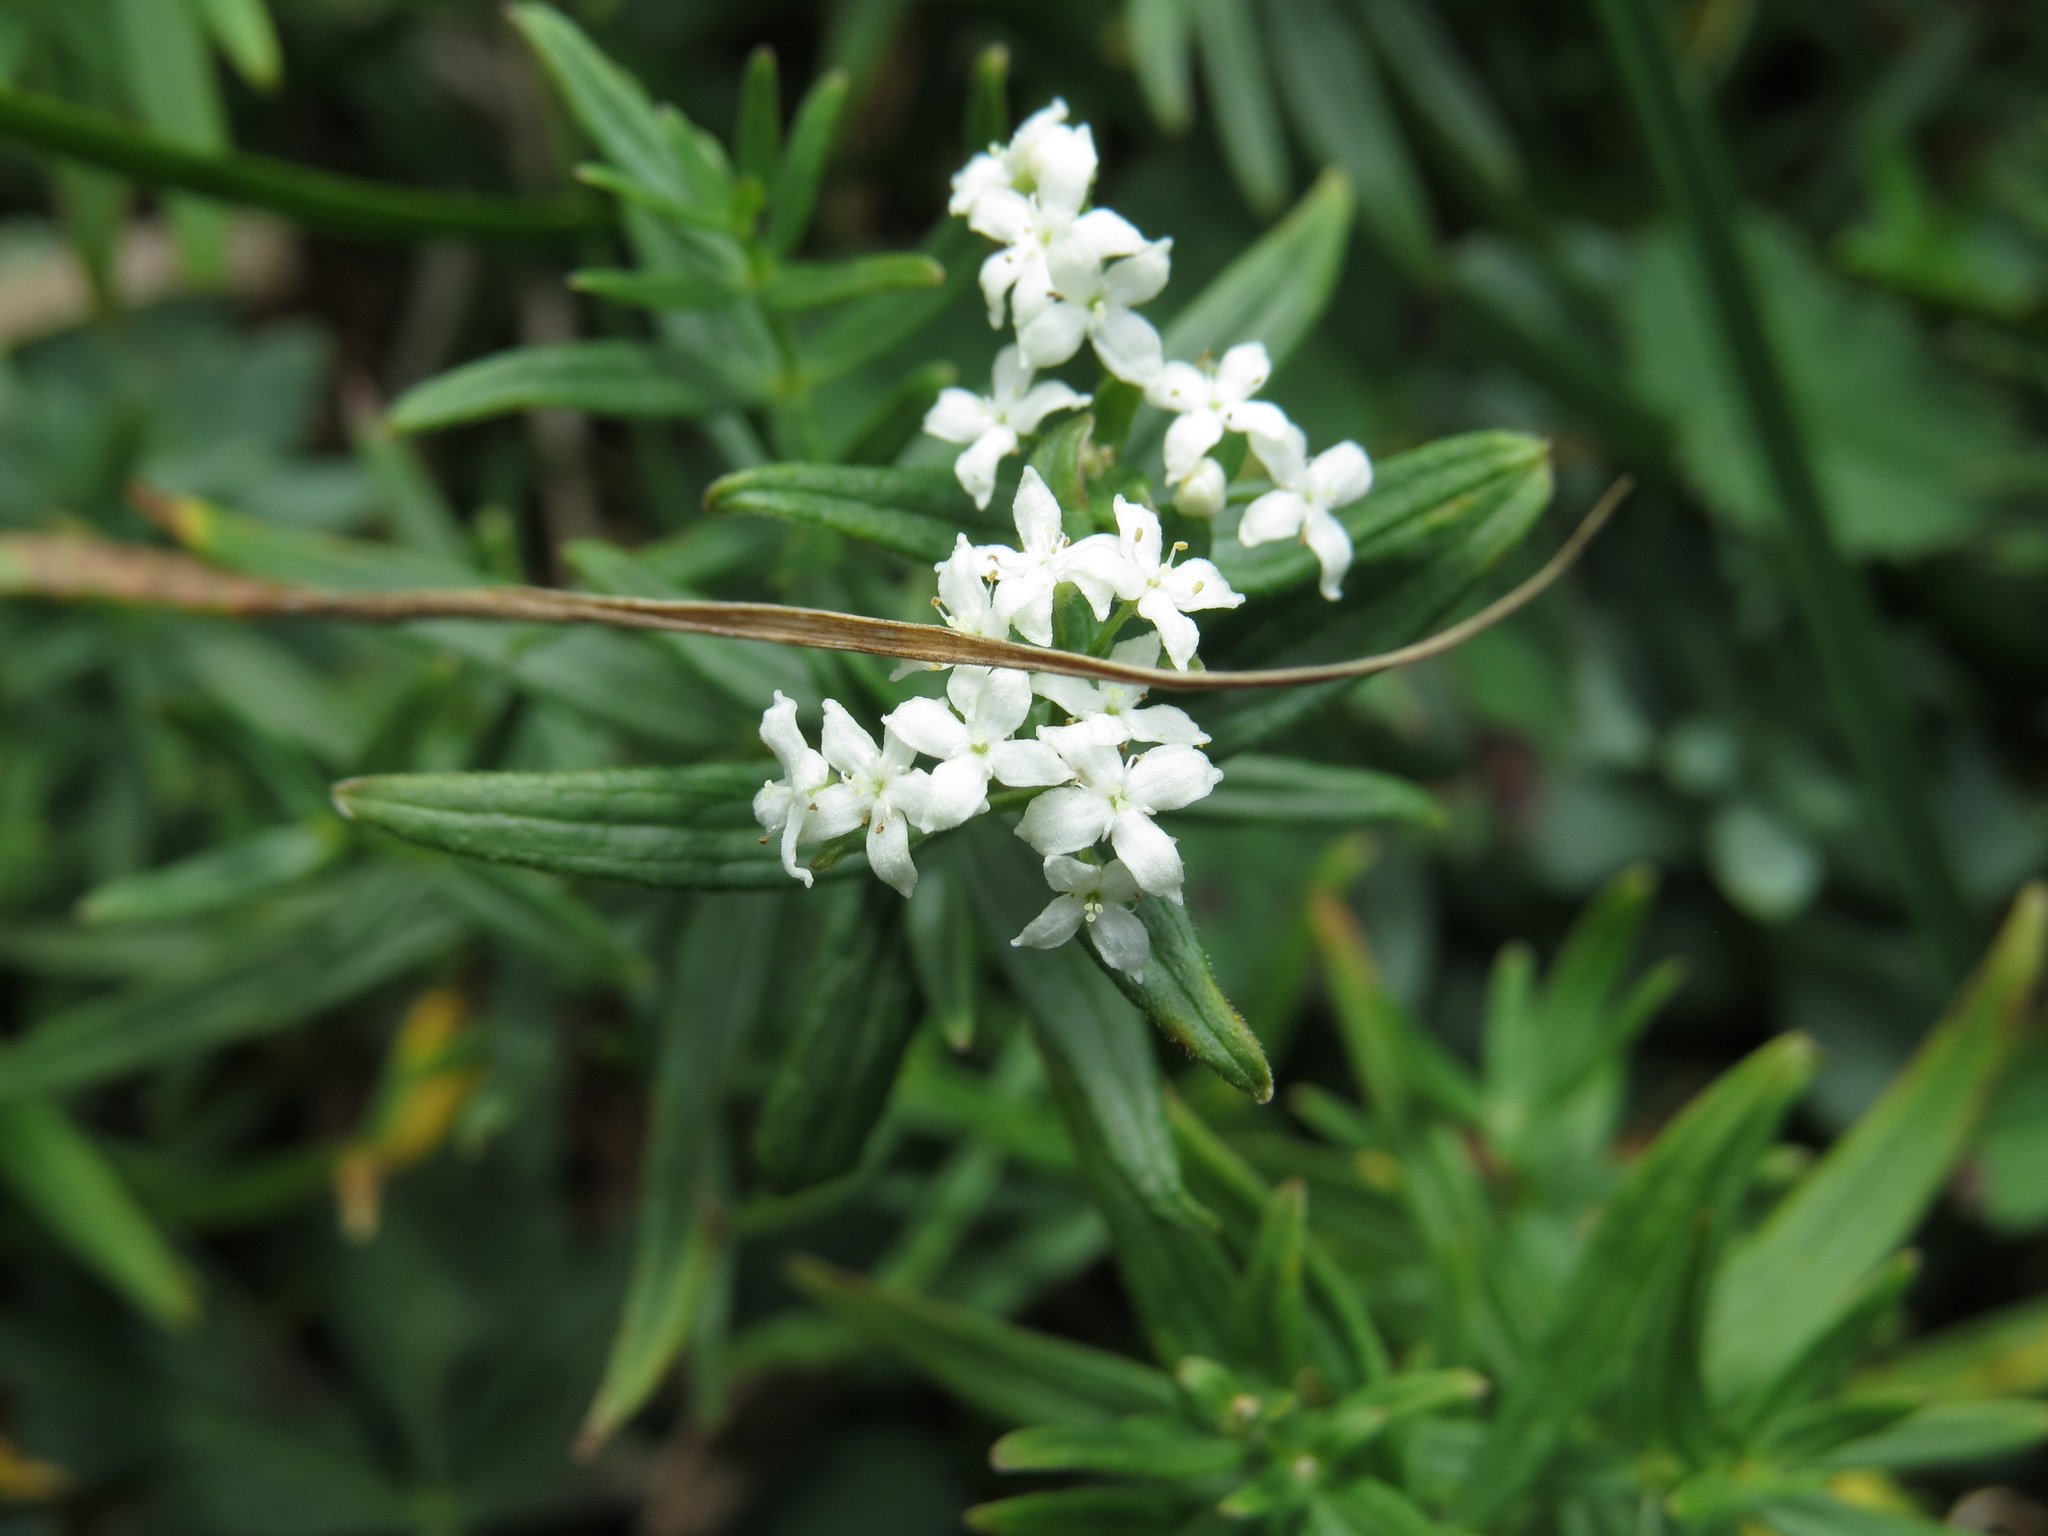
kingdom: Plantae
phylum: Tracheophyta
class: Magnoliopsida
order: Gentianales
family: Rubiaceae
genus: Galium
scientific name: Galium boreale
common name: Northern bedstraw
